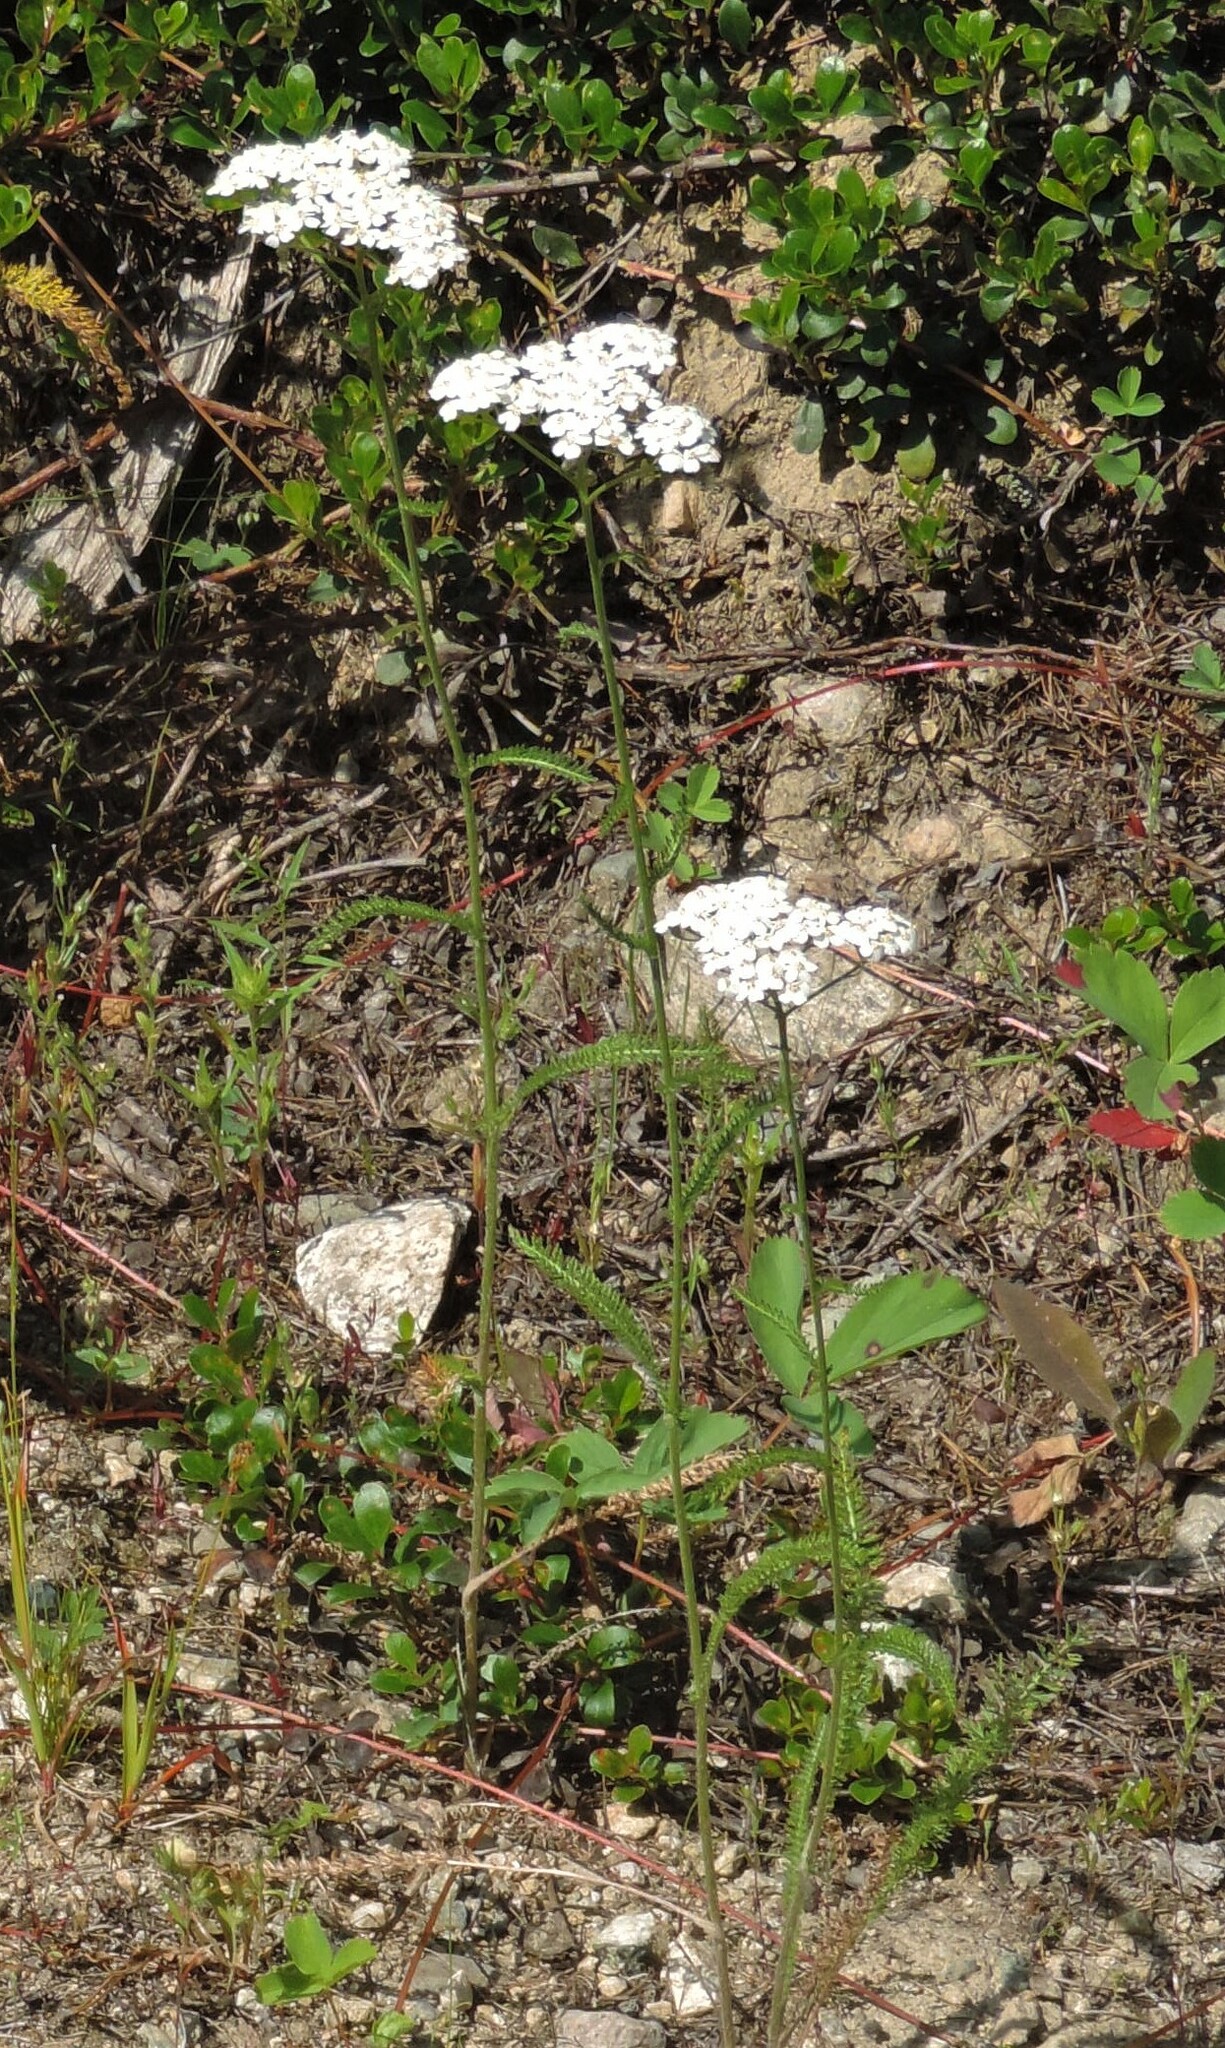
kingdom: Plantae
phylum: Tracheophyta
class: Magnoliopsida
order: Asterales
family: Asteraceae
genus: Achillea
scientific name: Achillea millefolium
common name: Yarrow
